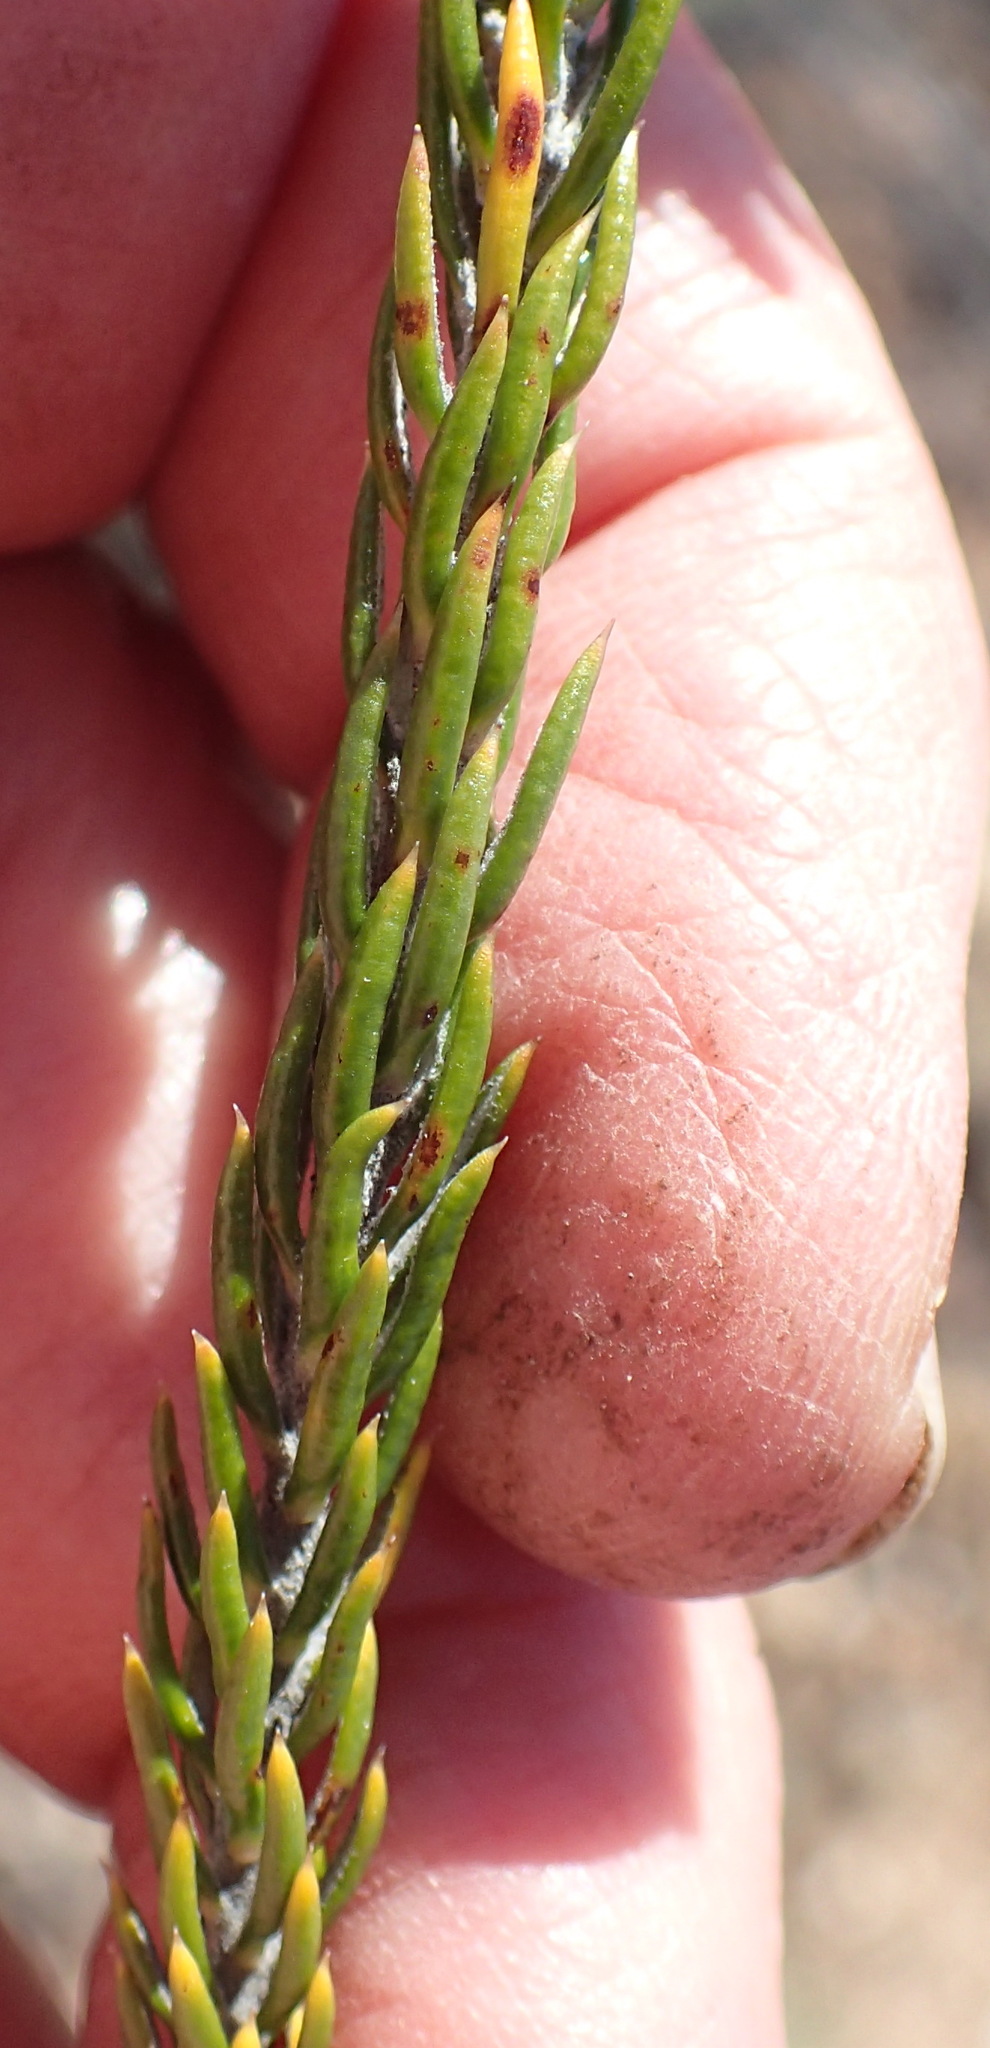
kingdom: Plantae
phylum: Tracheophyta
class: Magnoliopsida
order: Asterales
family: Asteraceae
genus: Metalasia
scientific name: Metalasia pallida
